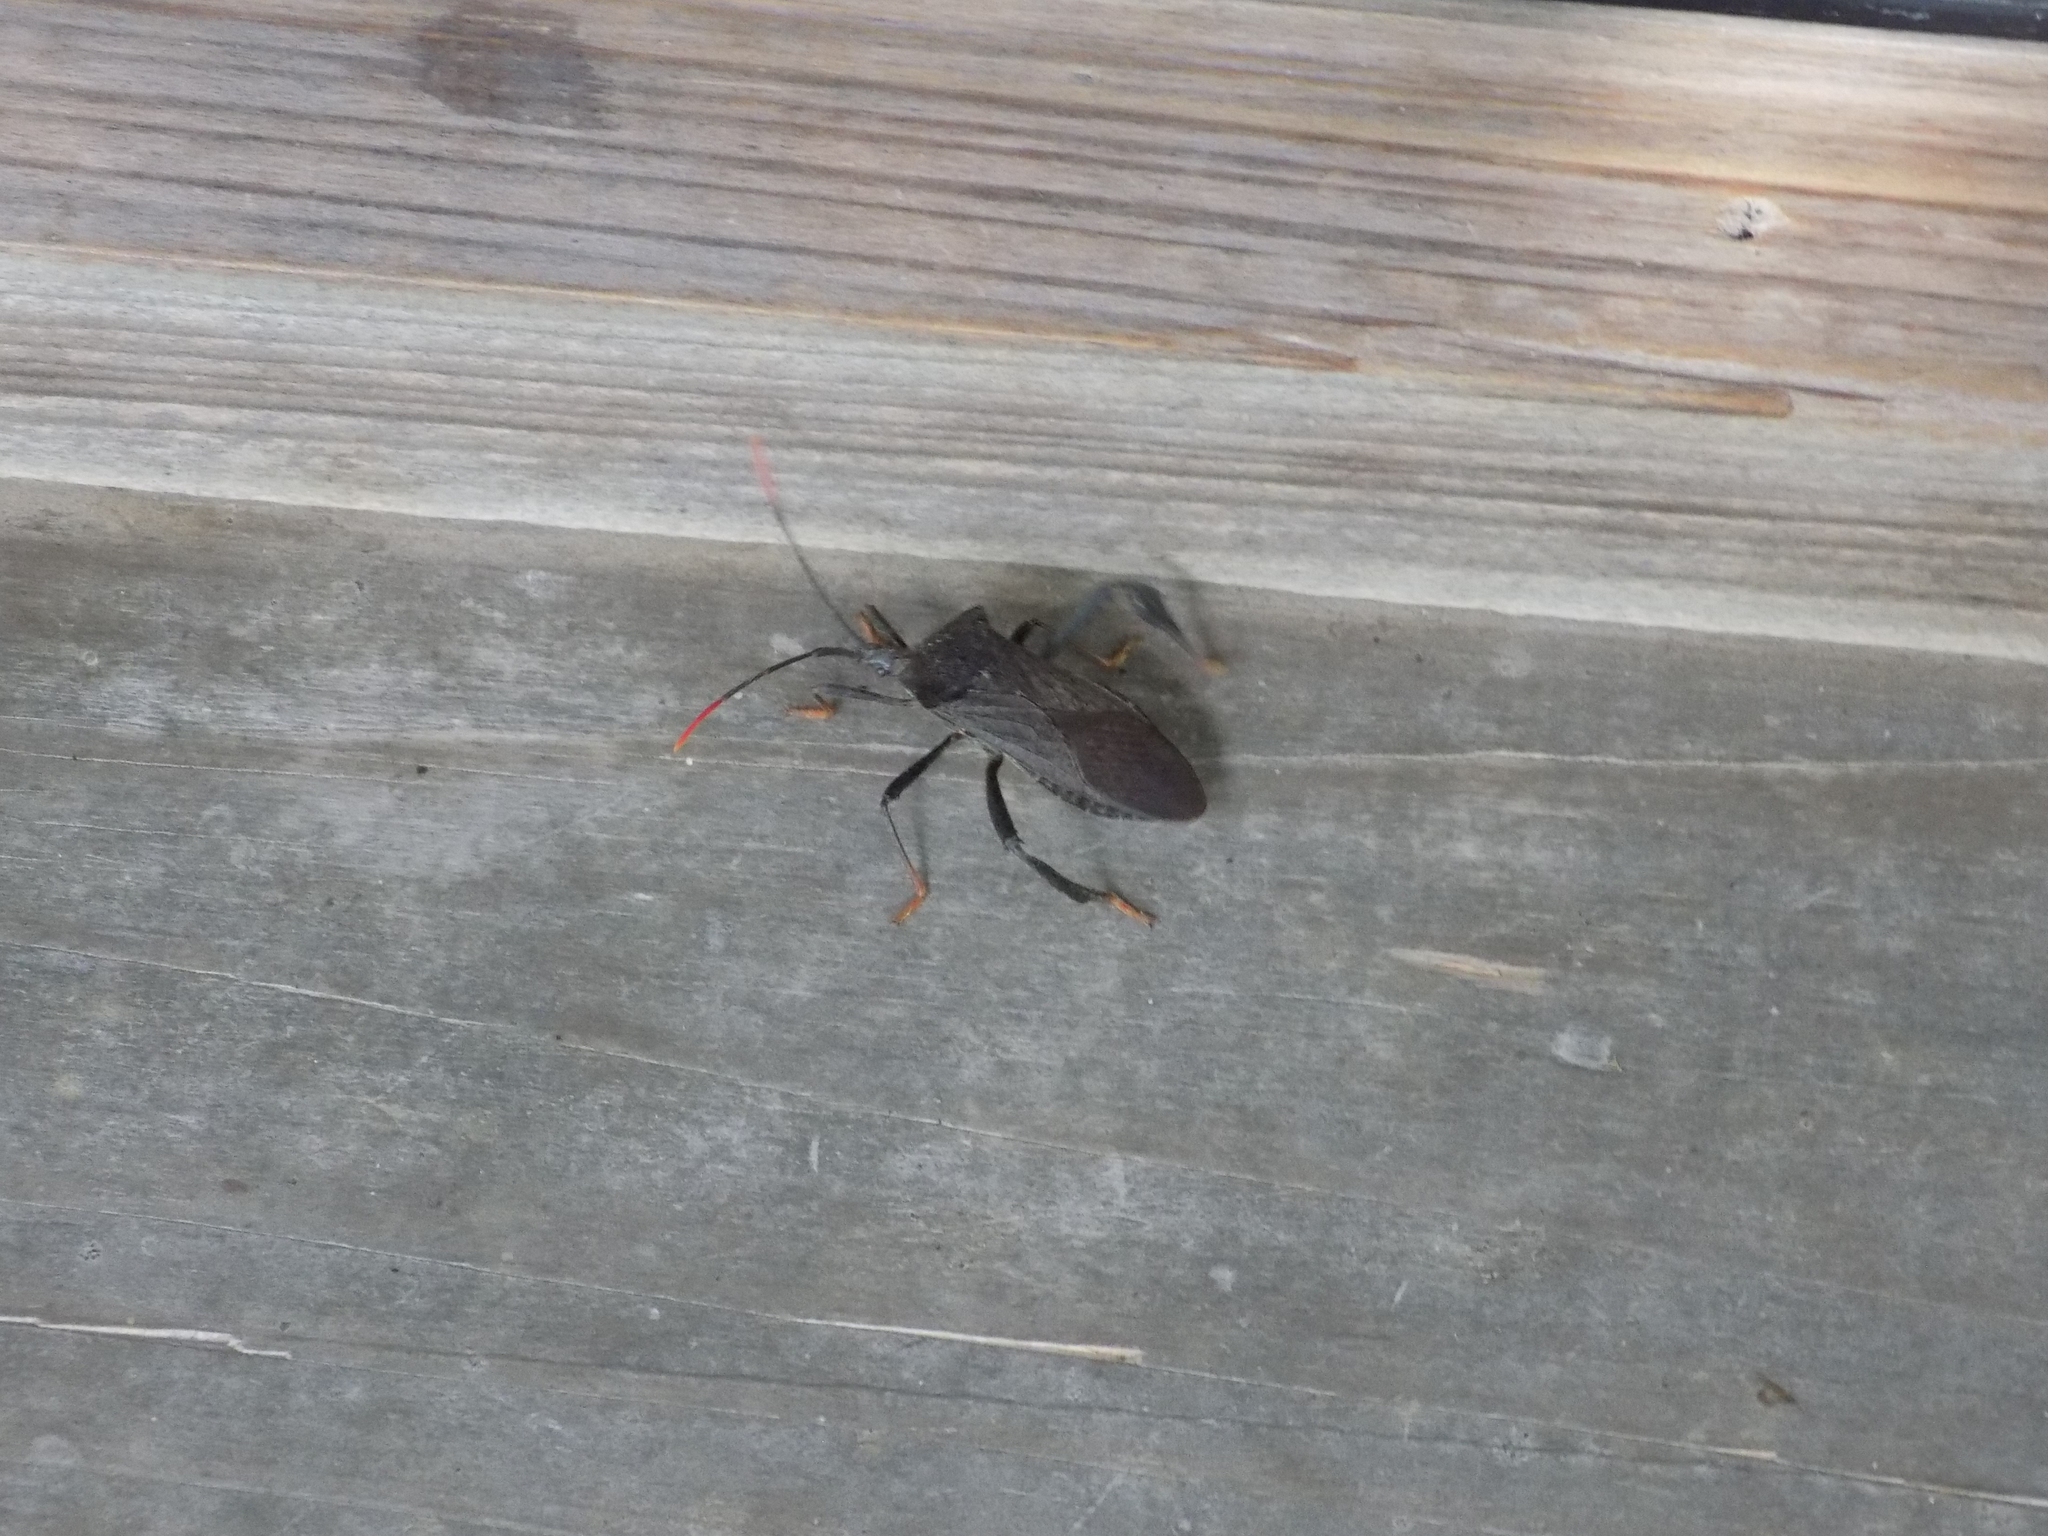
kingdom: Animalia
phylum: Arthropoda
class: Insecta
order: Hemiptera
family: Coreidae
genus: Acanthocephala
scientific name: Acanthocephala terminalis
